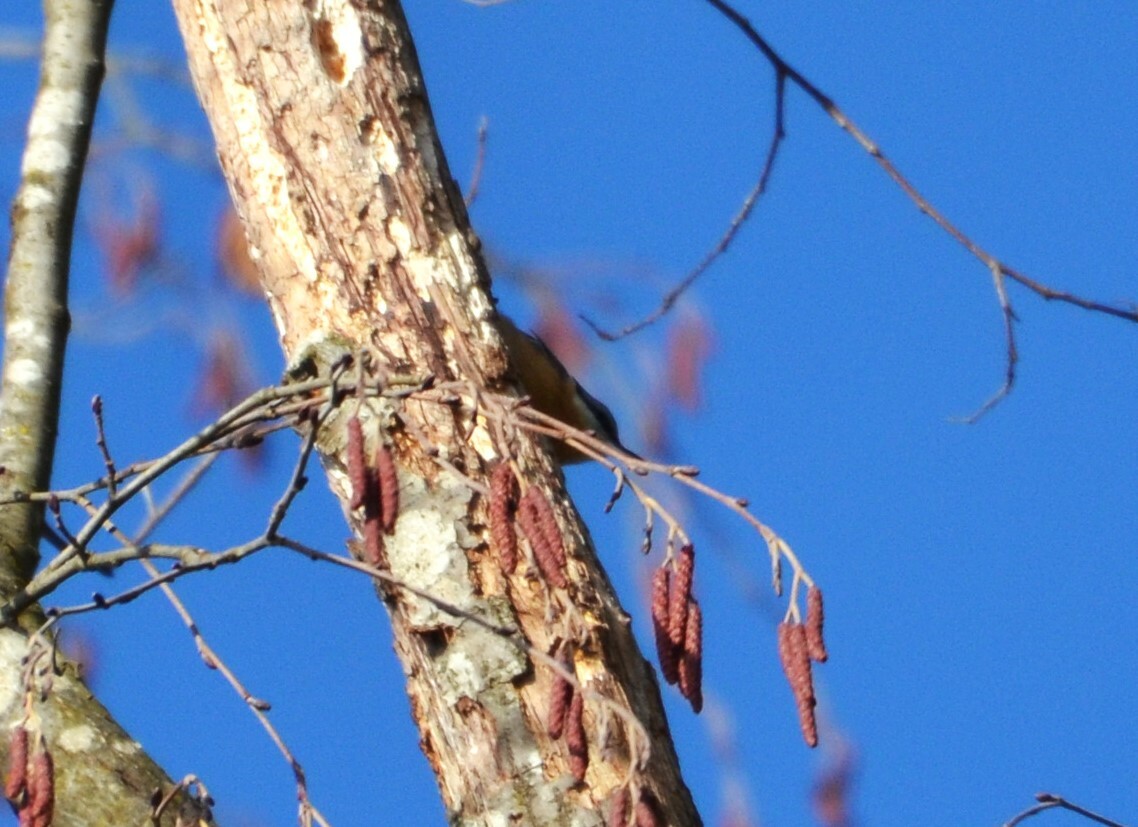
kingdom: Animalia
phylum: Chordata
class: Aves
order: Passeriformes
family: Sittidae
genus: Sitta
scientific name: Sitta europaea
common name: Eurasian nuthatch
